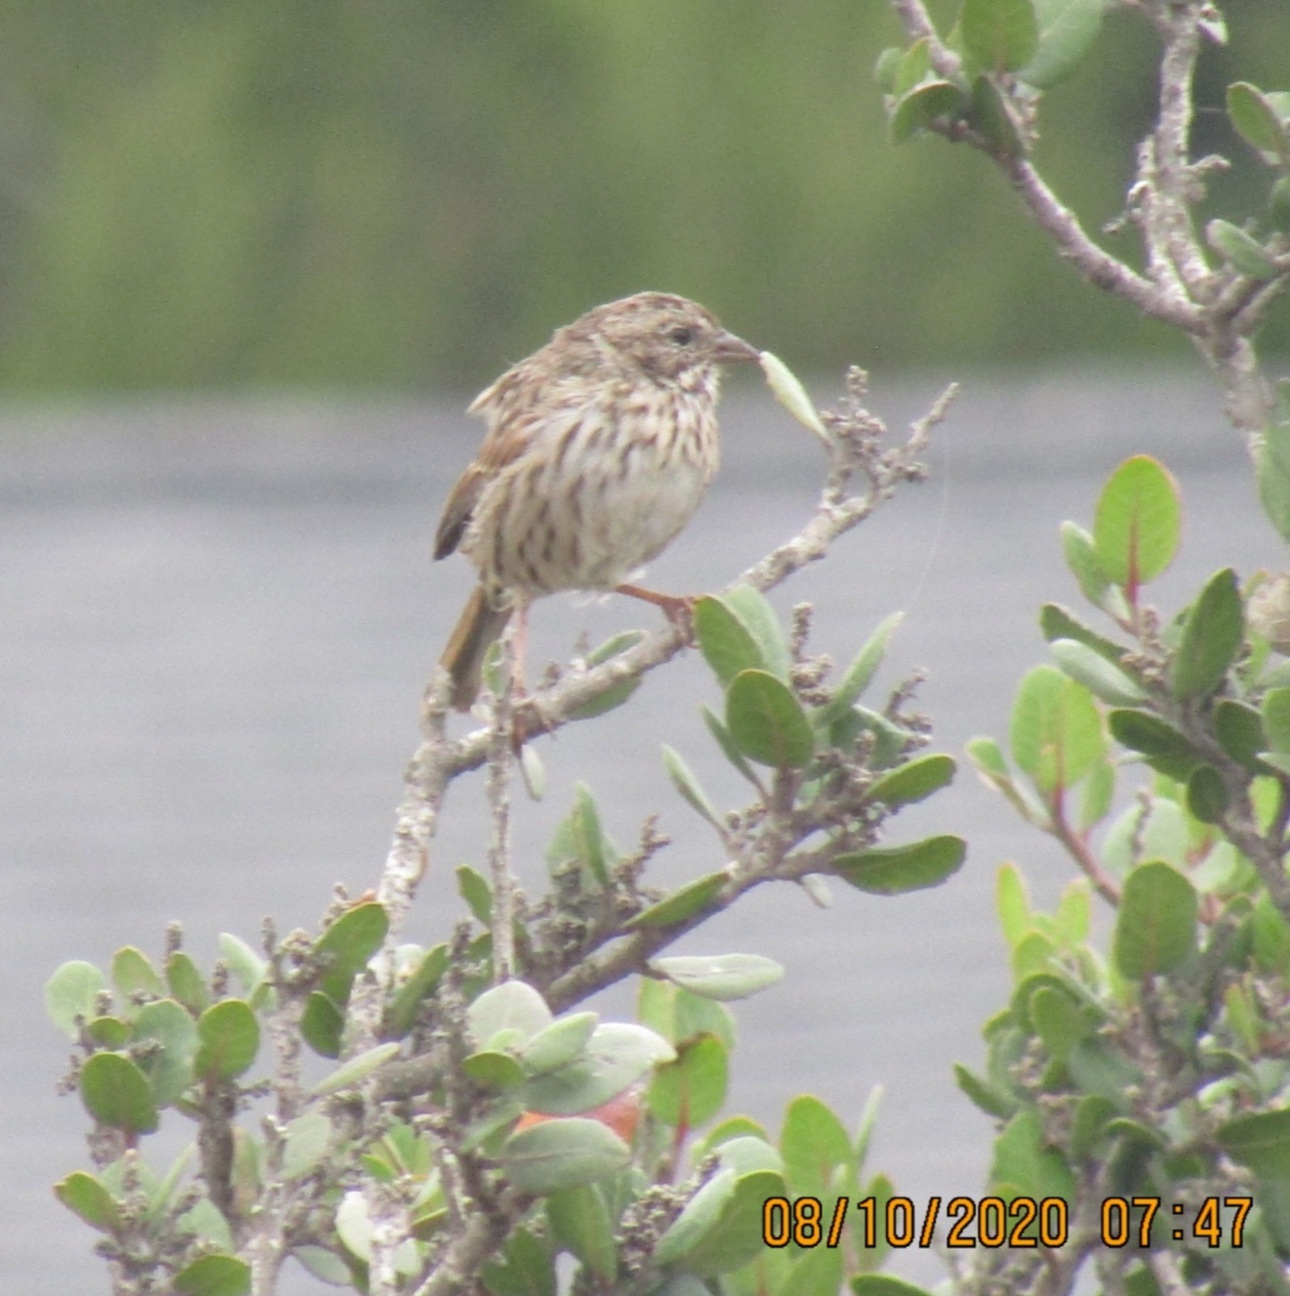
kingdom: Animalia
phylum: Chordata
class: Aves
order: Passeriformes
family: Passerellidae
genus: Melospiza
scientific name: Melospiza melodia
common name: Song sparrow
